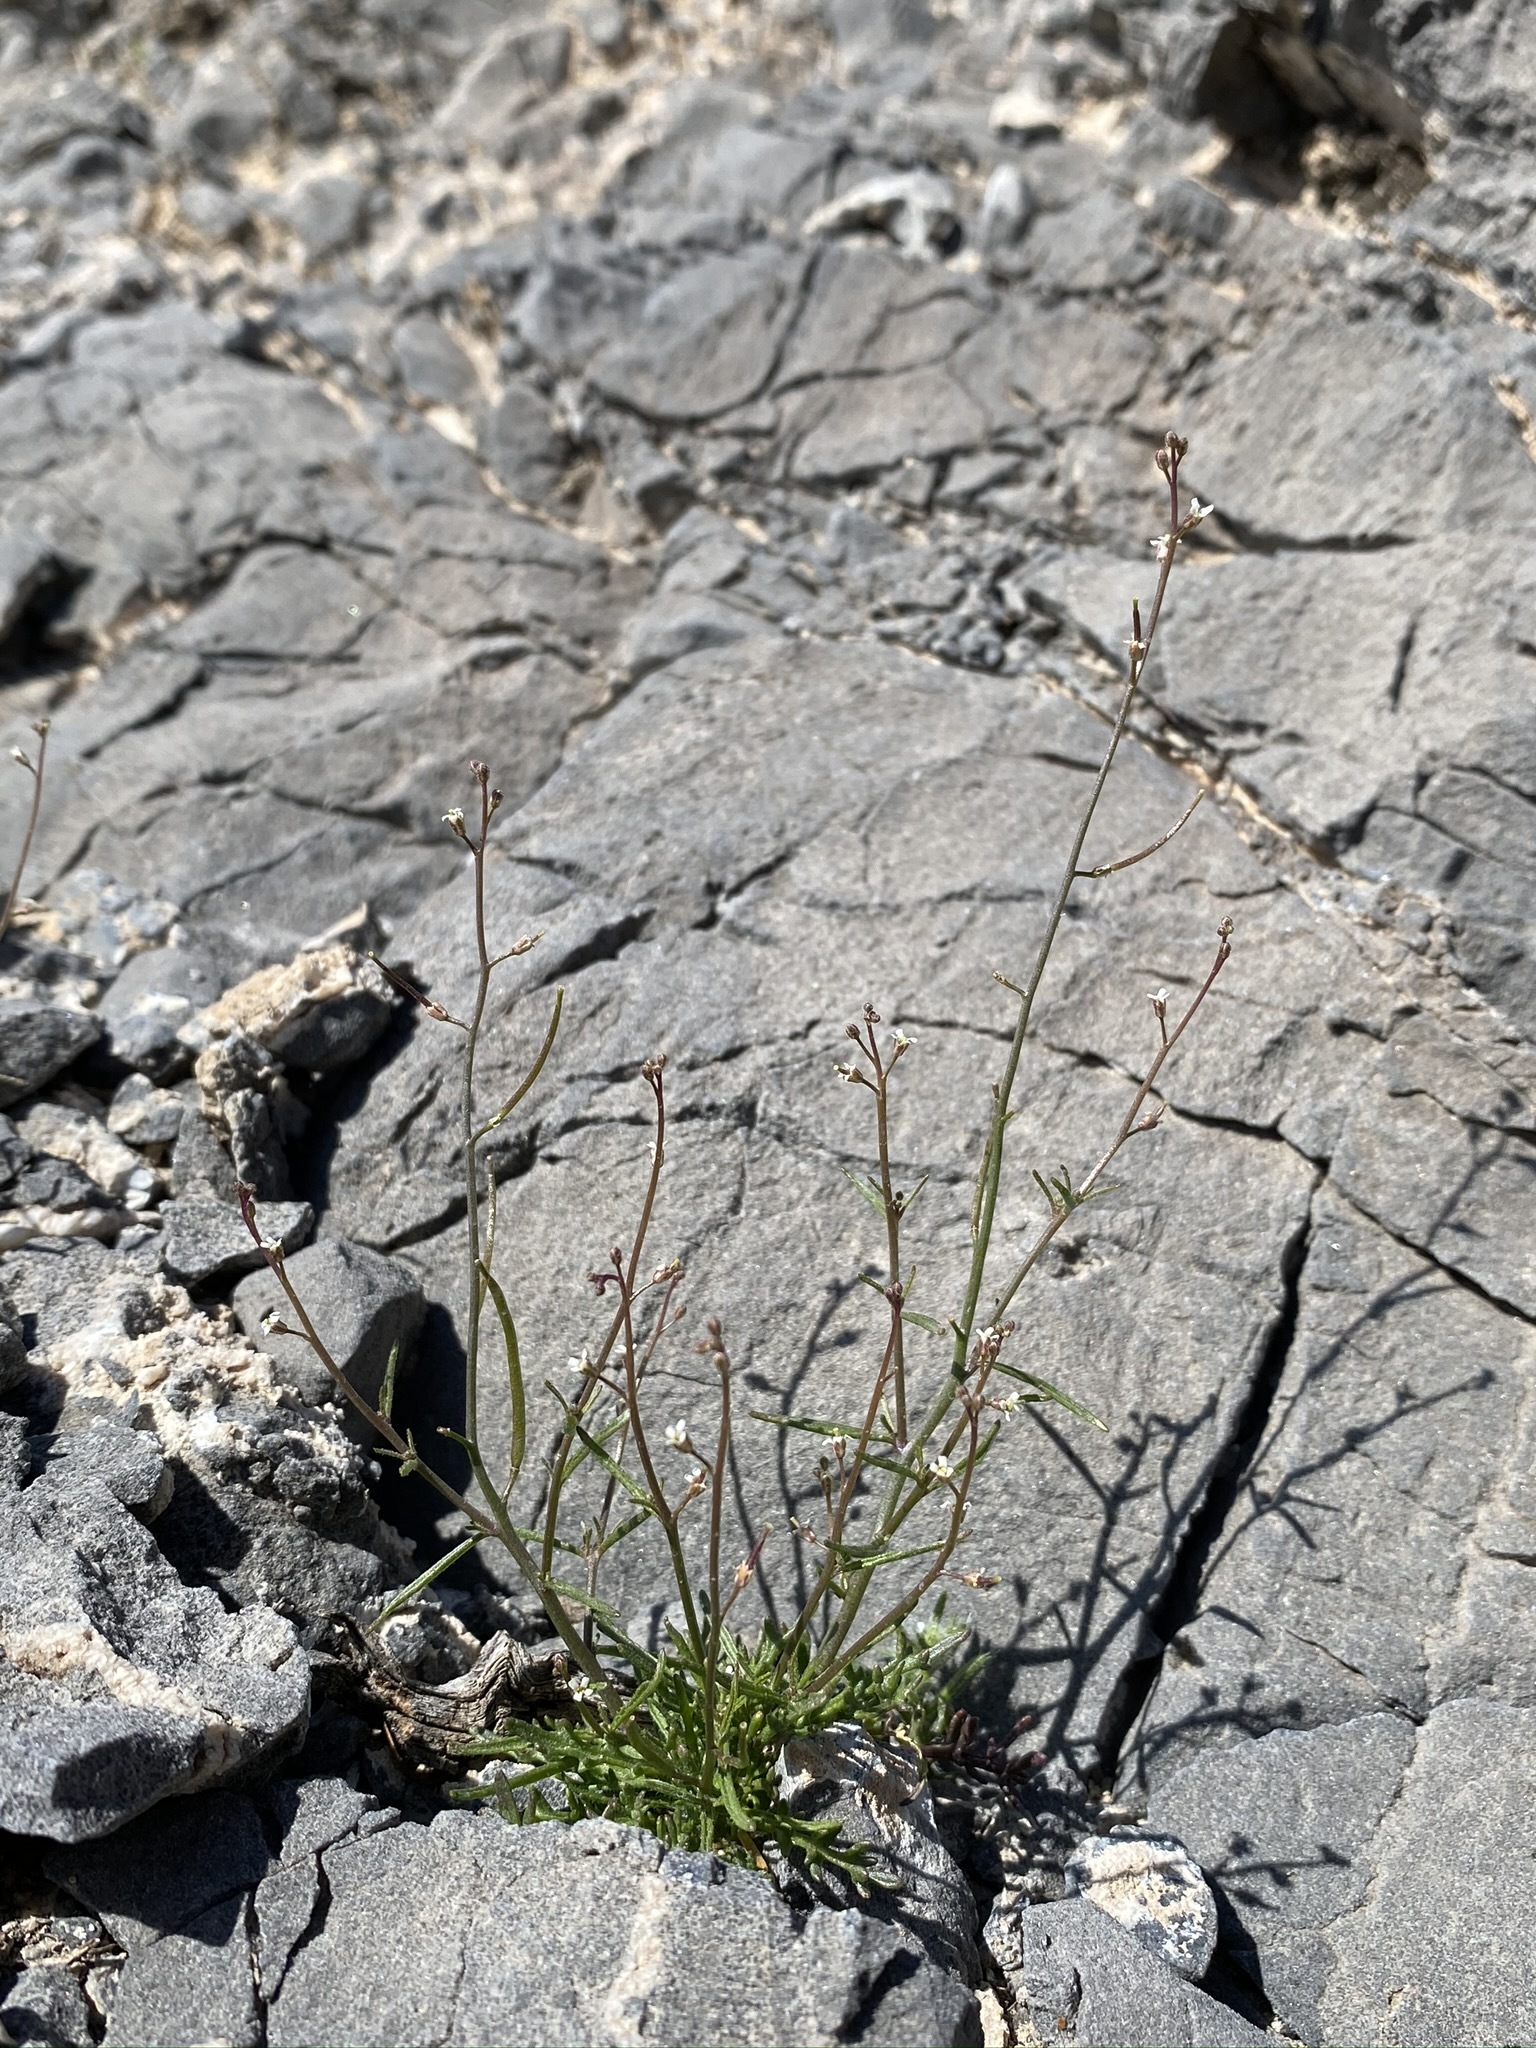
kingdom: Plantae
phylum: Tracheophyta
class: Magnoliopsida
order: Brassicales
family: Brassicaceae
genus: Sibara
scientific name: Sibara deserti
